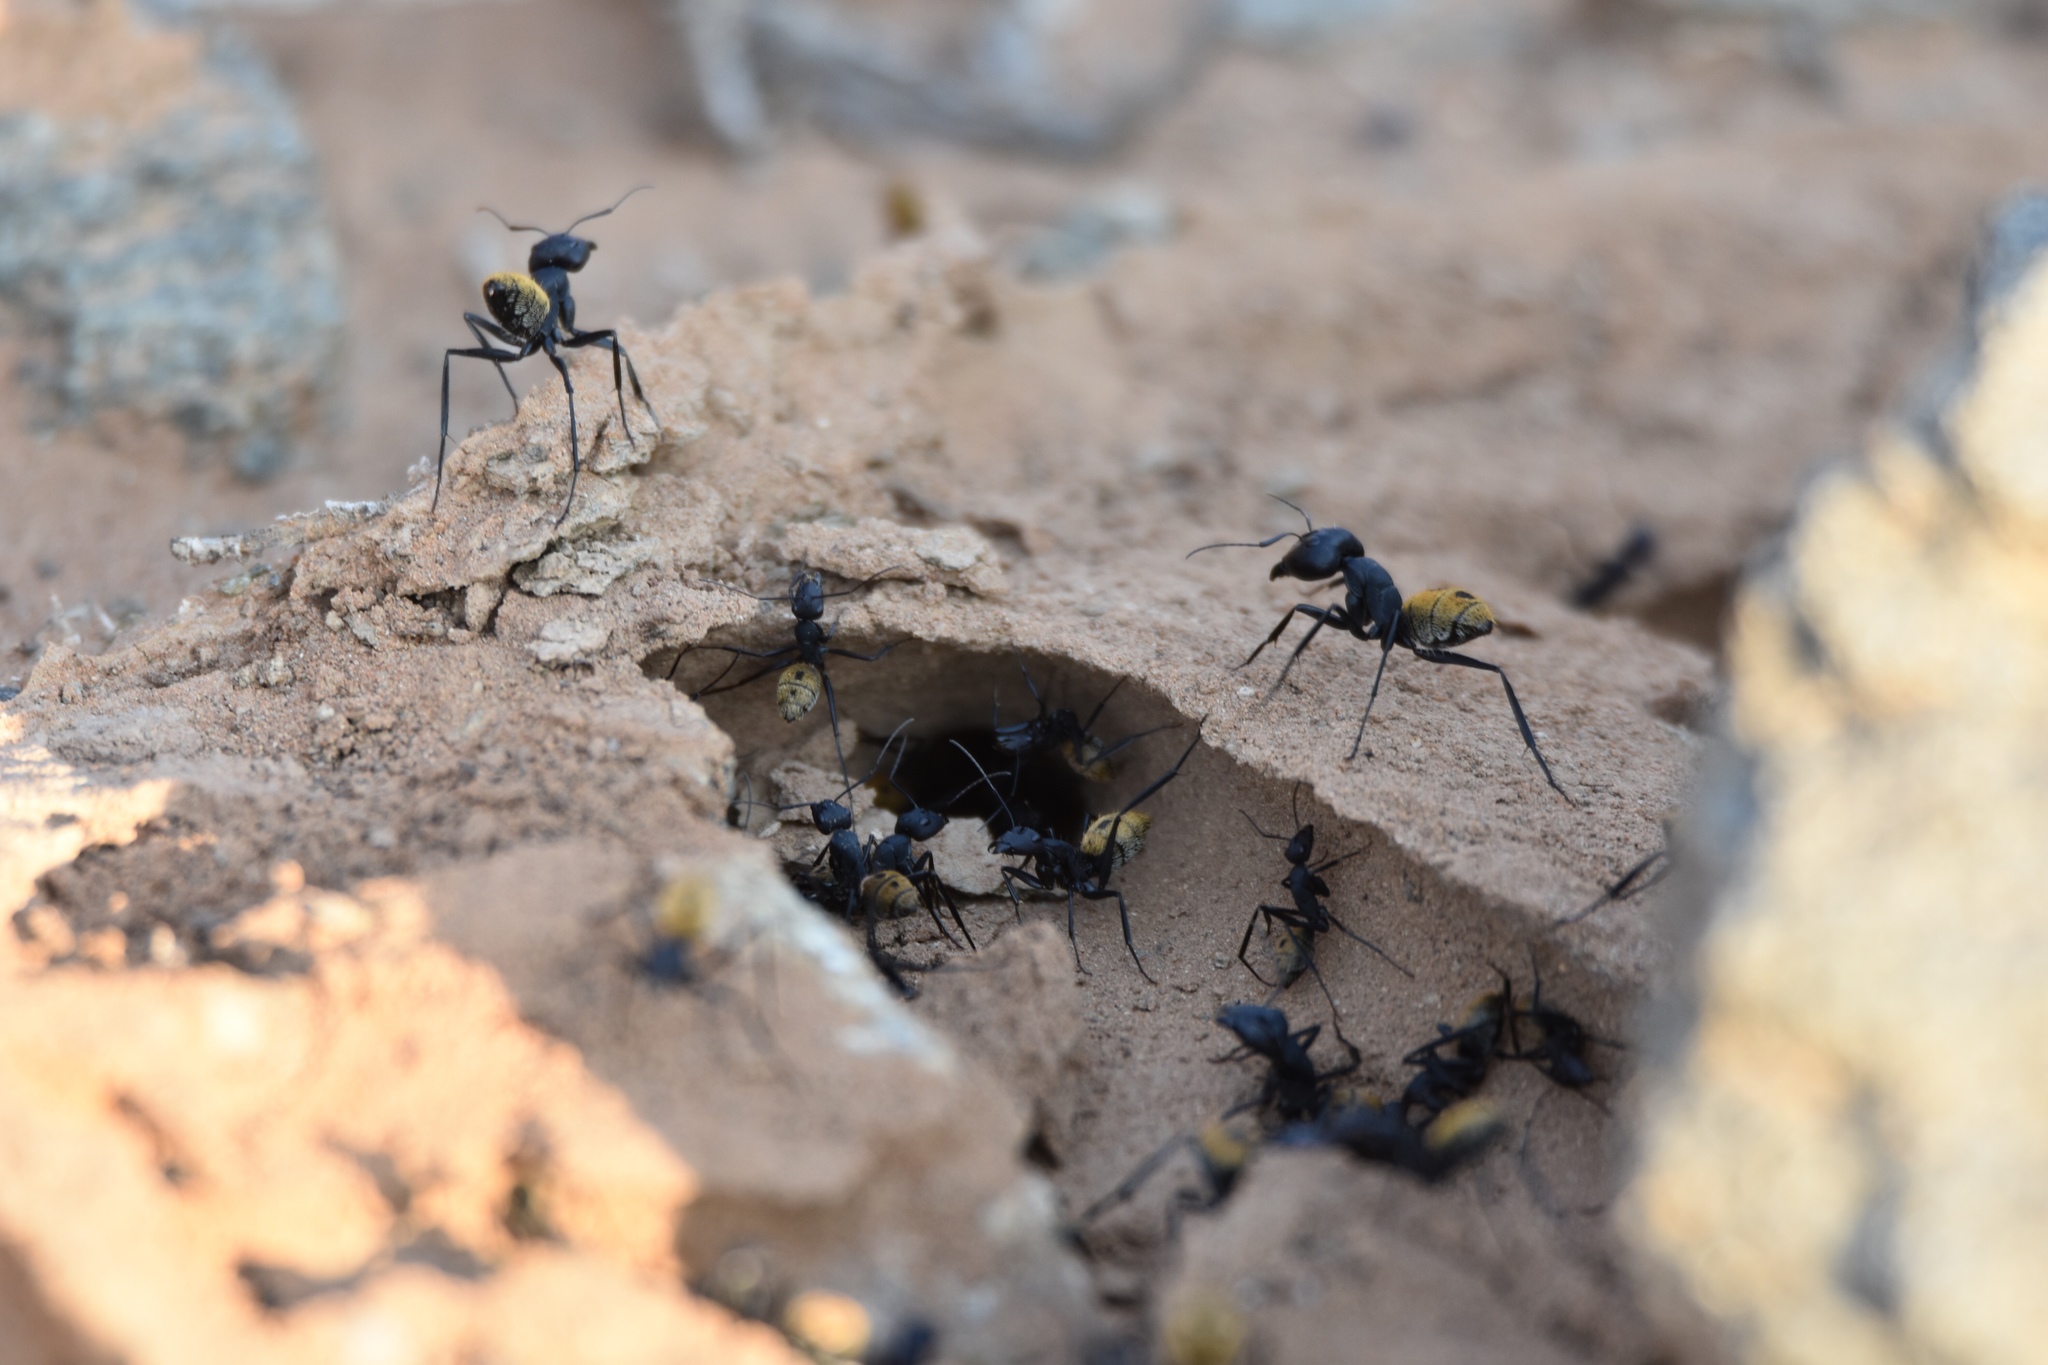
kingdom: Animalia
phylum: Arthropoda
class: Insecta
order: Hymenoptera
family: Formicidae
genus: Camponotus
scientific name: Camponotus fulvopilosus
